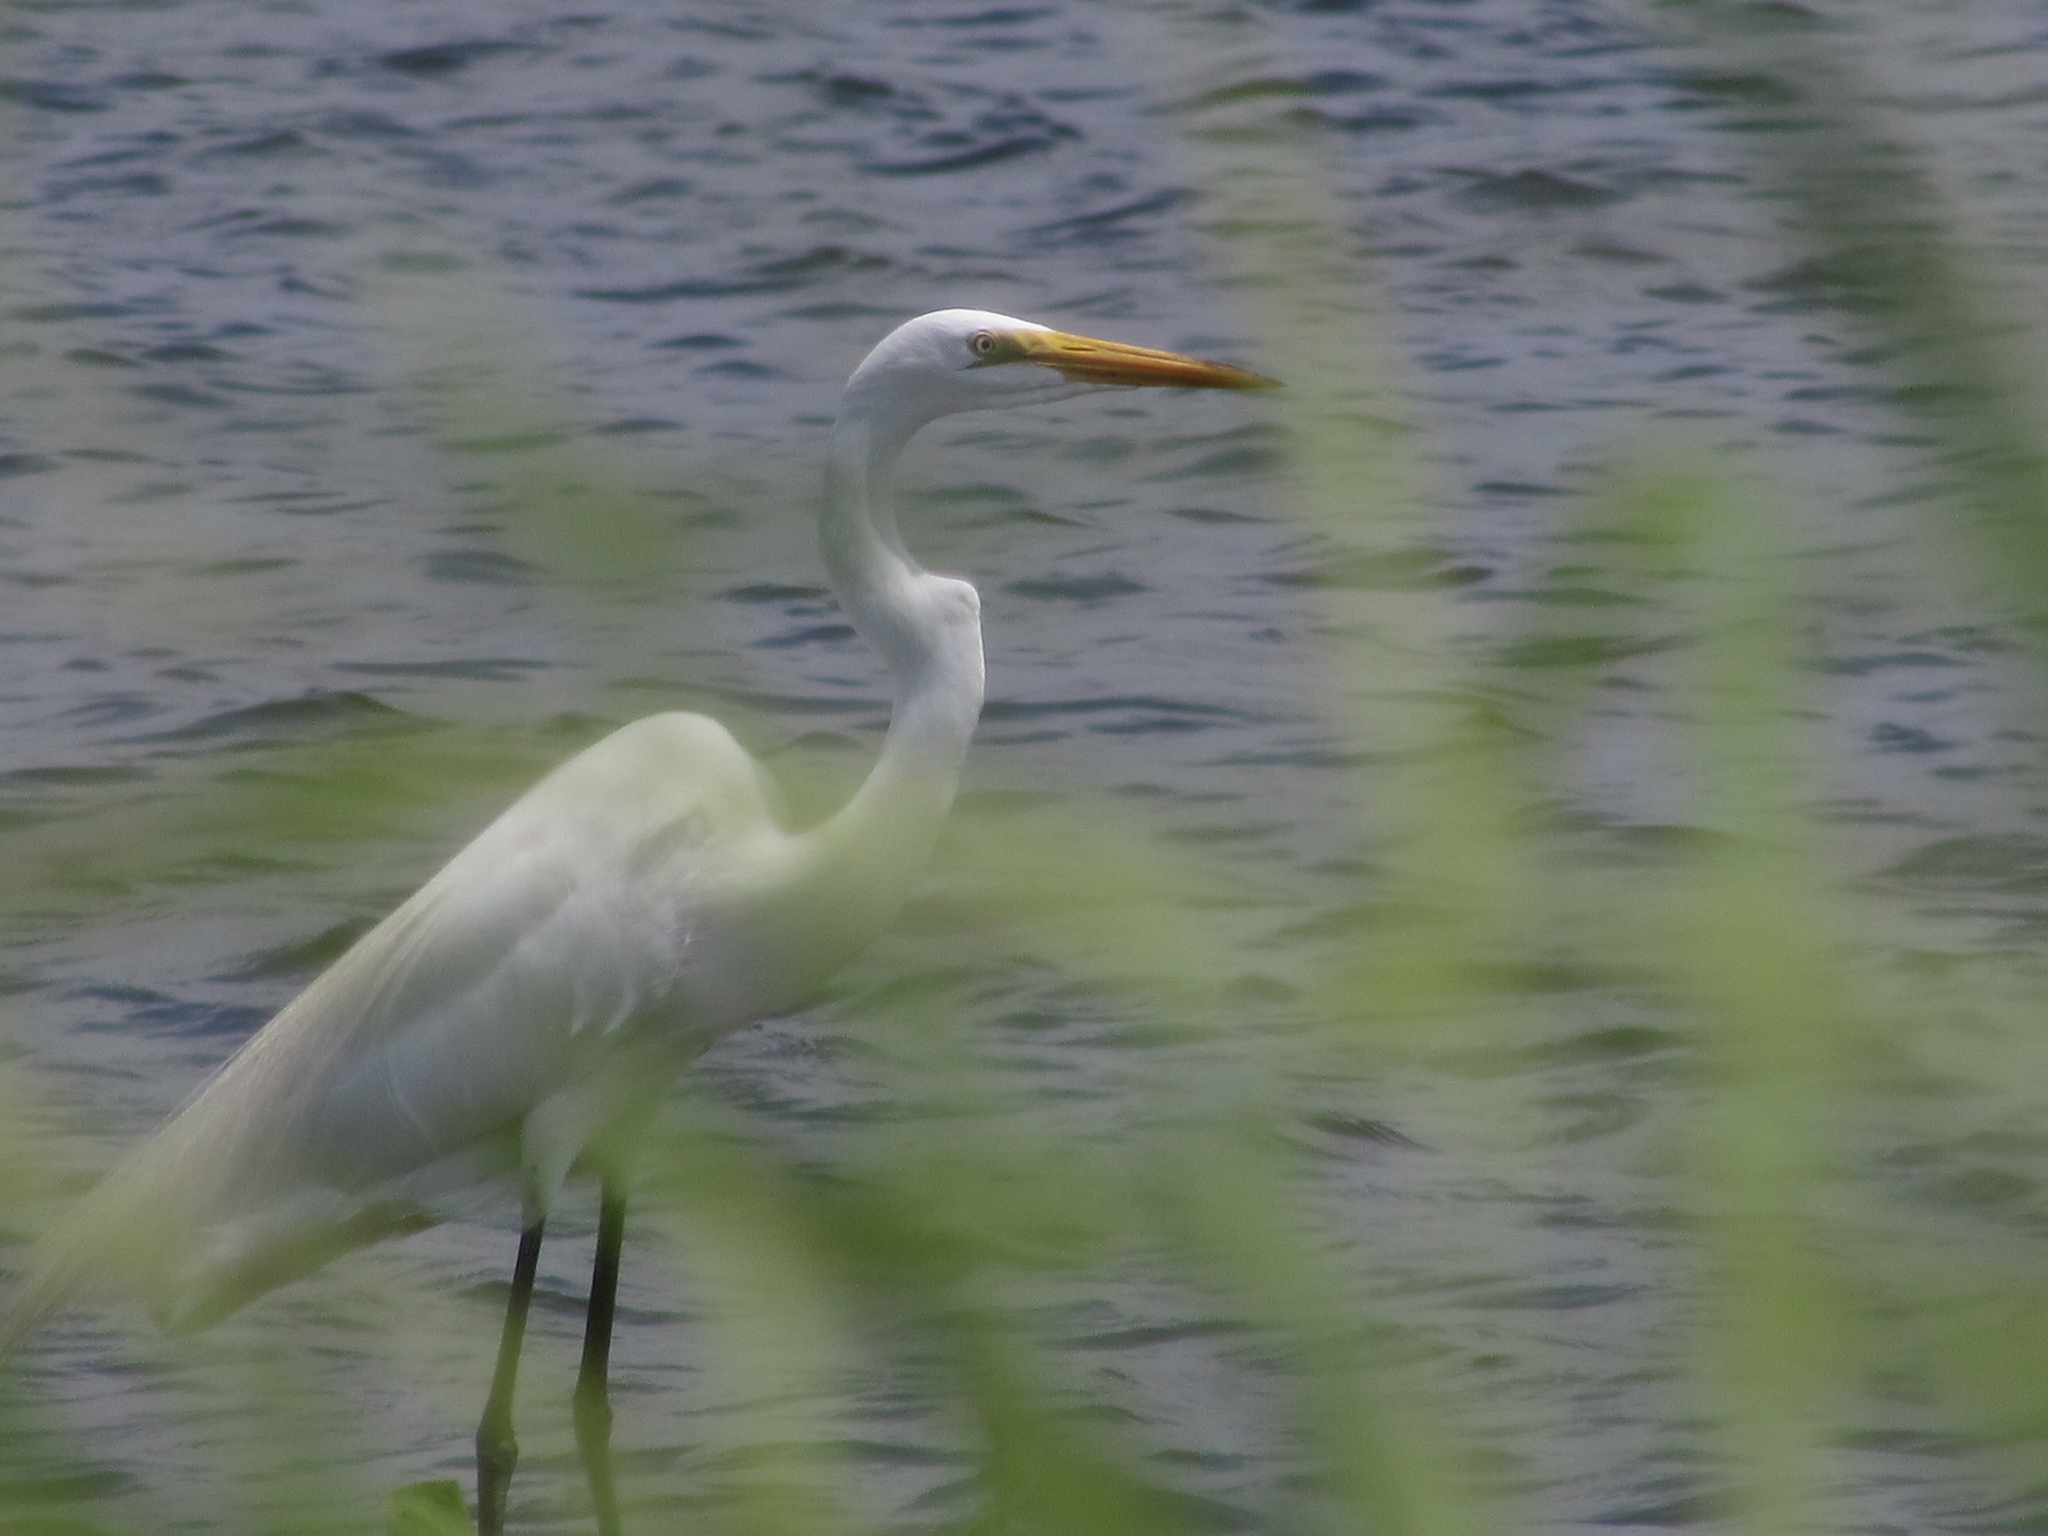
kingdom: Animalia
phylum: Chordata
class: Aves
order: Pelecaniformes
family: Ardeidae
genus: Ardea
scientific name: Ardea alba
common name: Great egret
